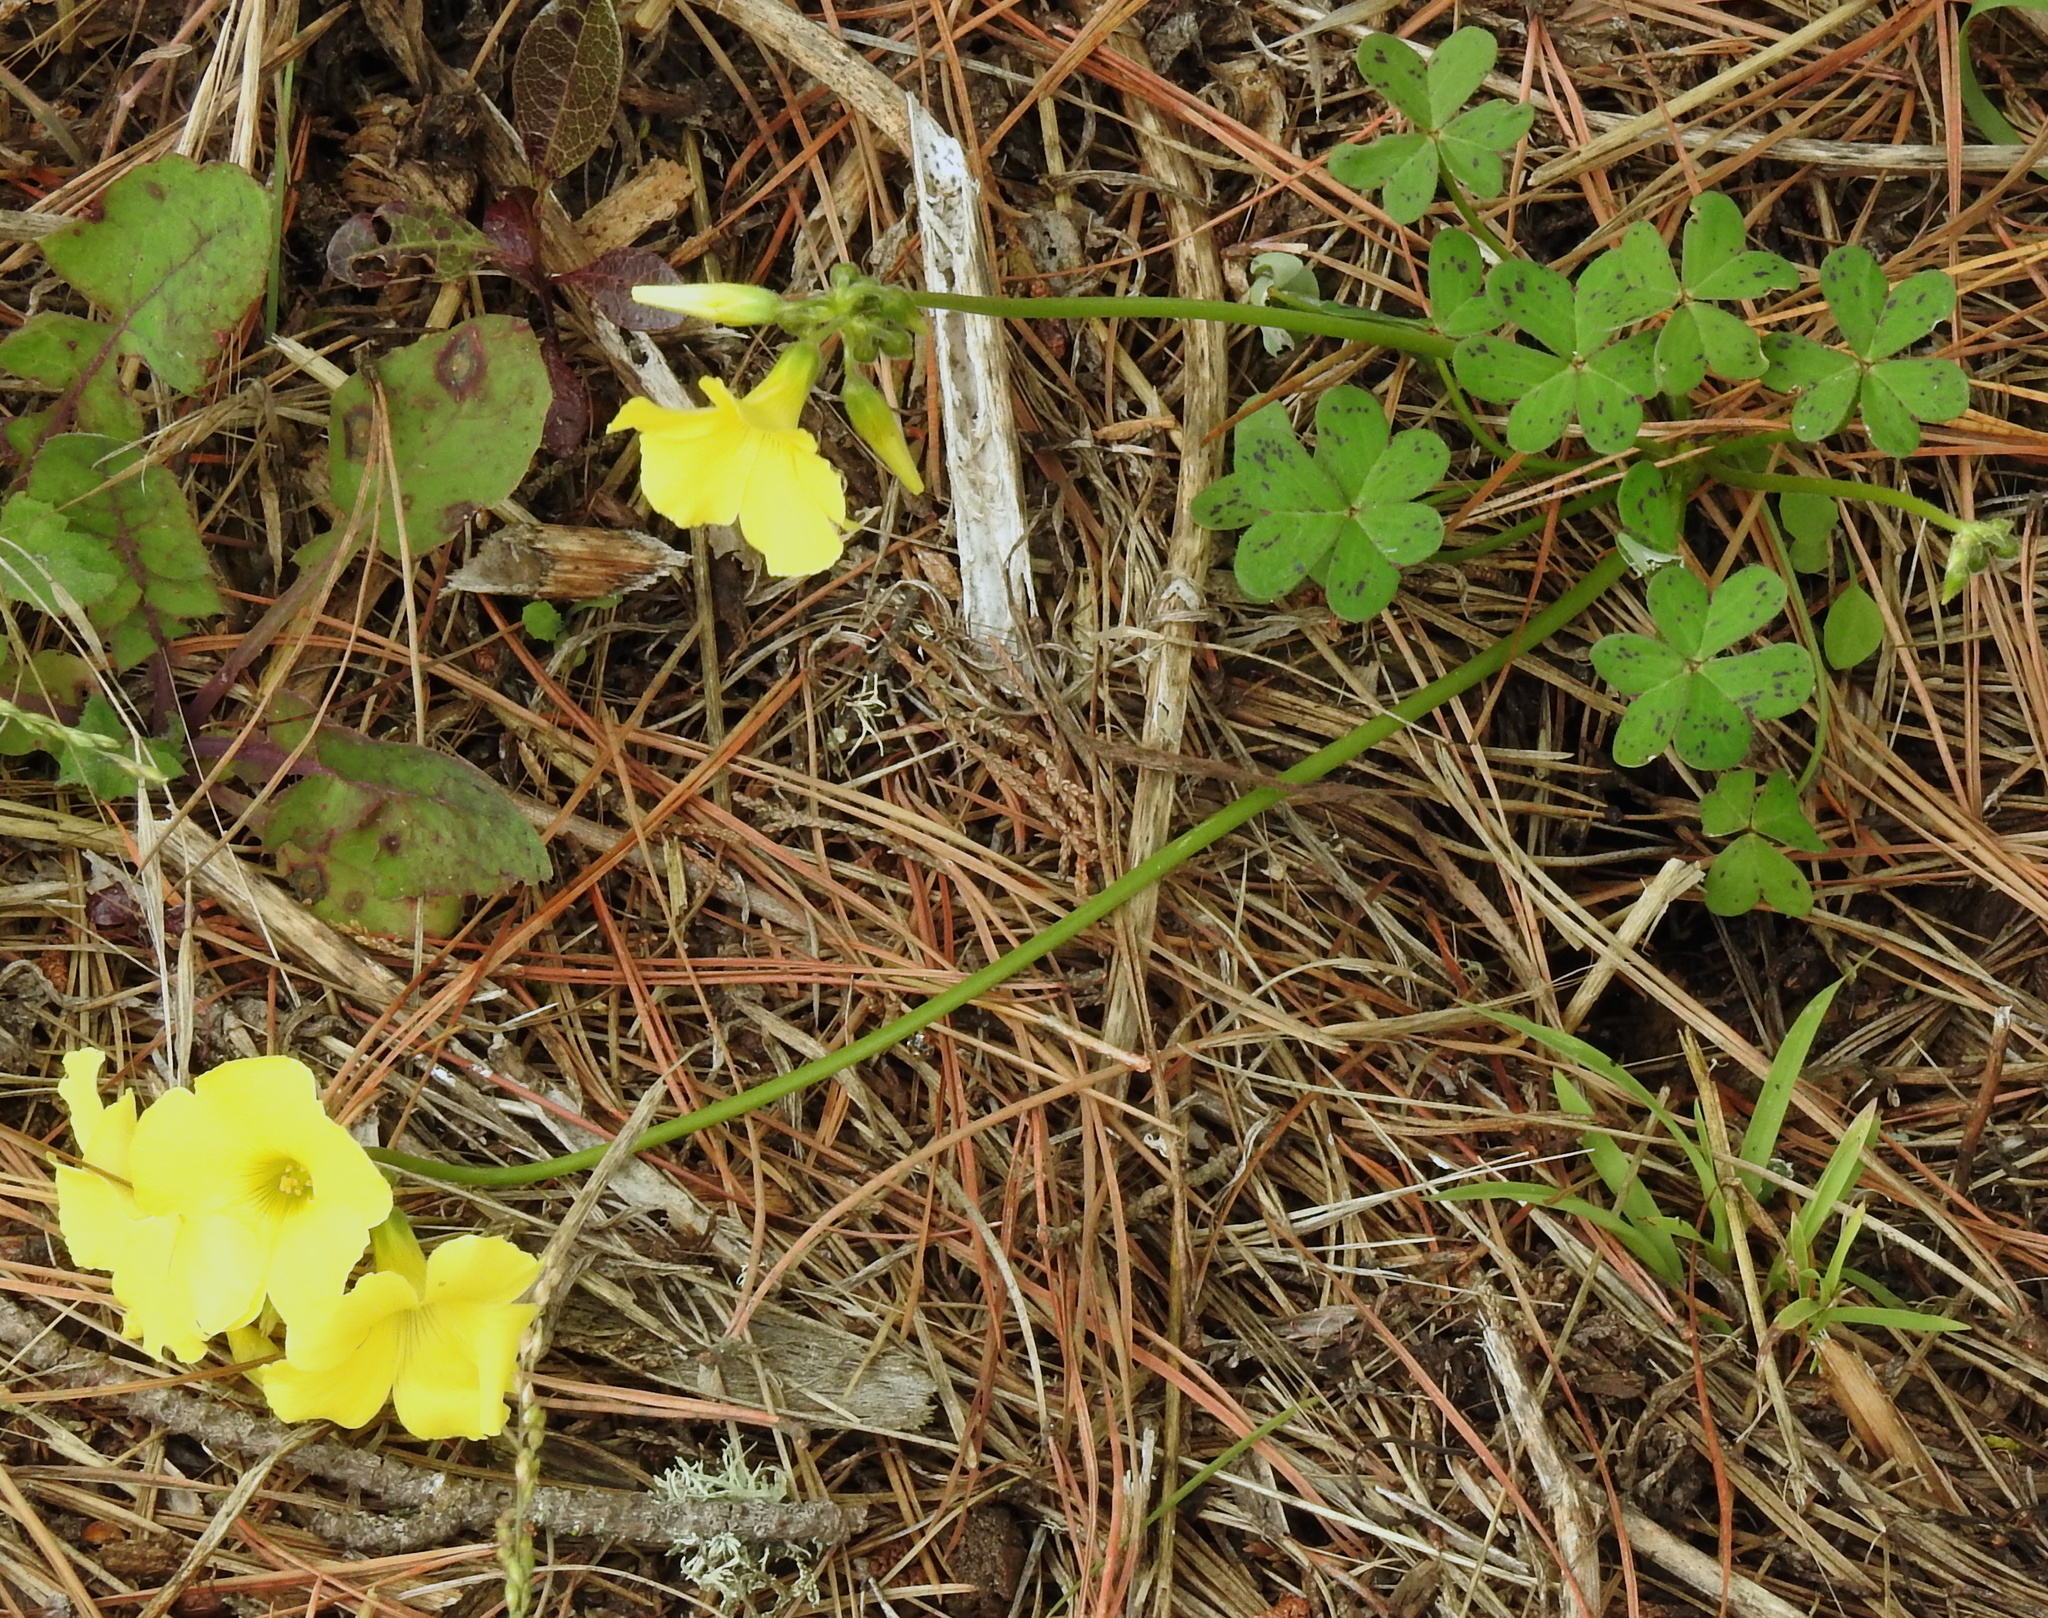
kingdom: Plantae
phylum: Tracheophyta
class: Magnoliopsida
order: Oxalidales
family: Oxalidaceae
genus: Oxalis
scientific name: Oxalis pes-caprae
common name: Bermuda-buttercup
